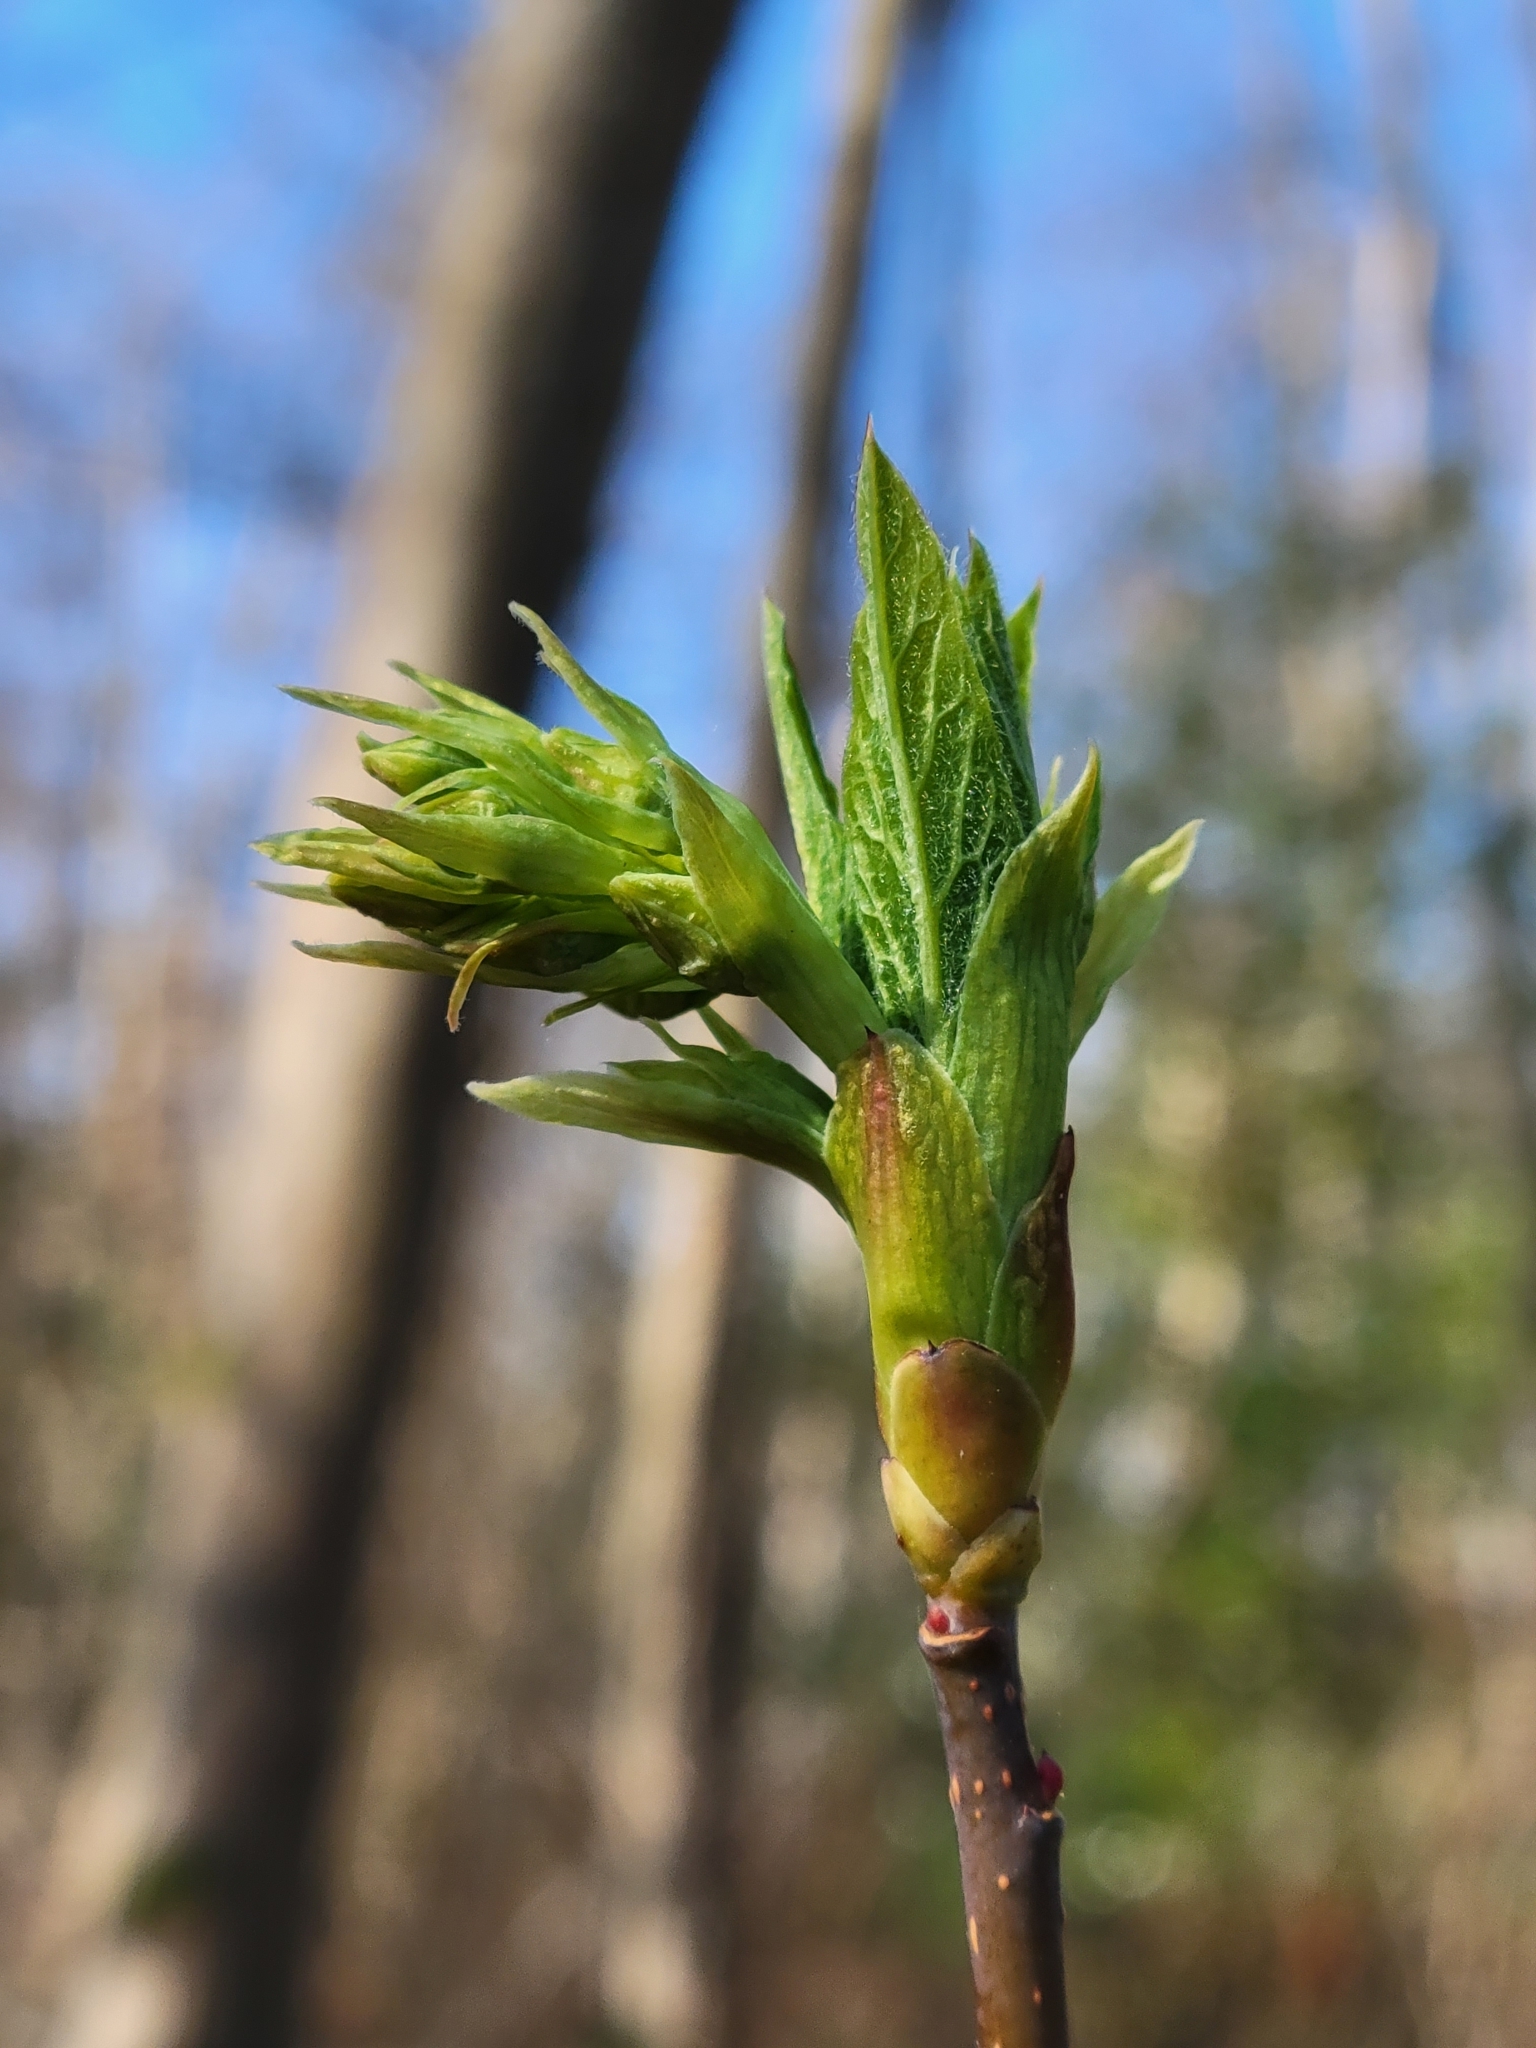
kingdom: Plantae
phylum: Tracheophyta
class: Magnoliopsida
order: Rosales
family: Rosaceae
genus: Oemleria
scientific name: Oemleria cerasiformis
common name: Osoberry
